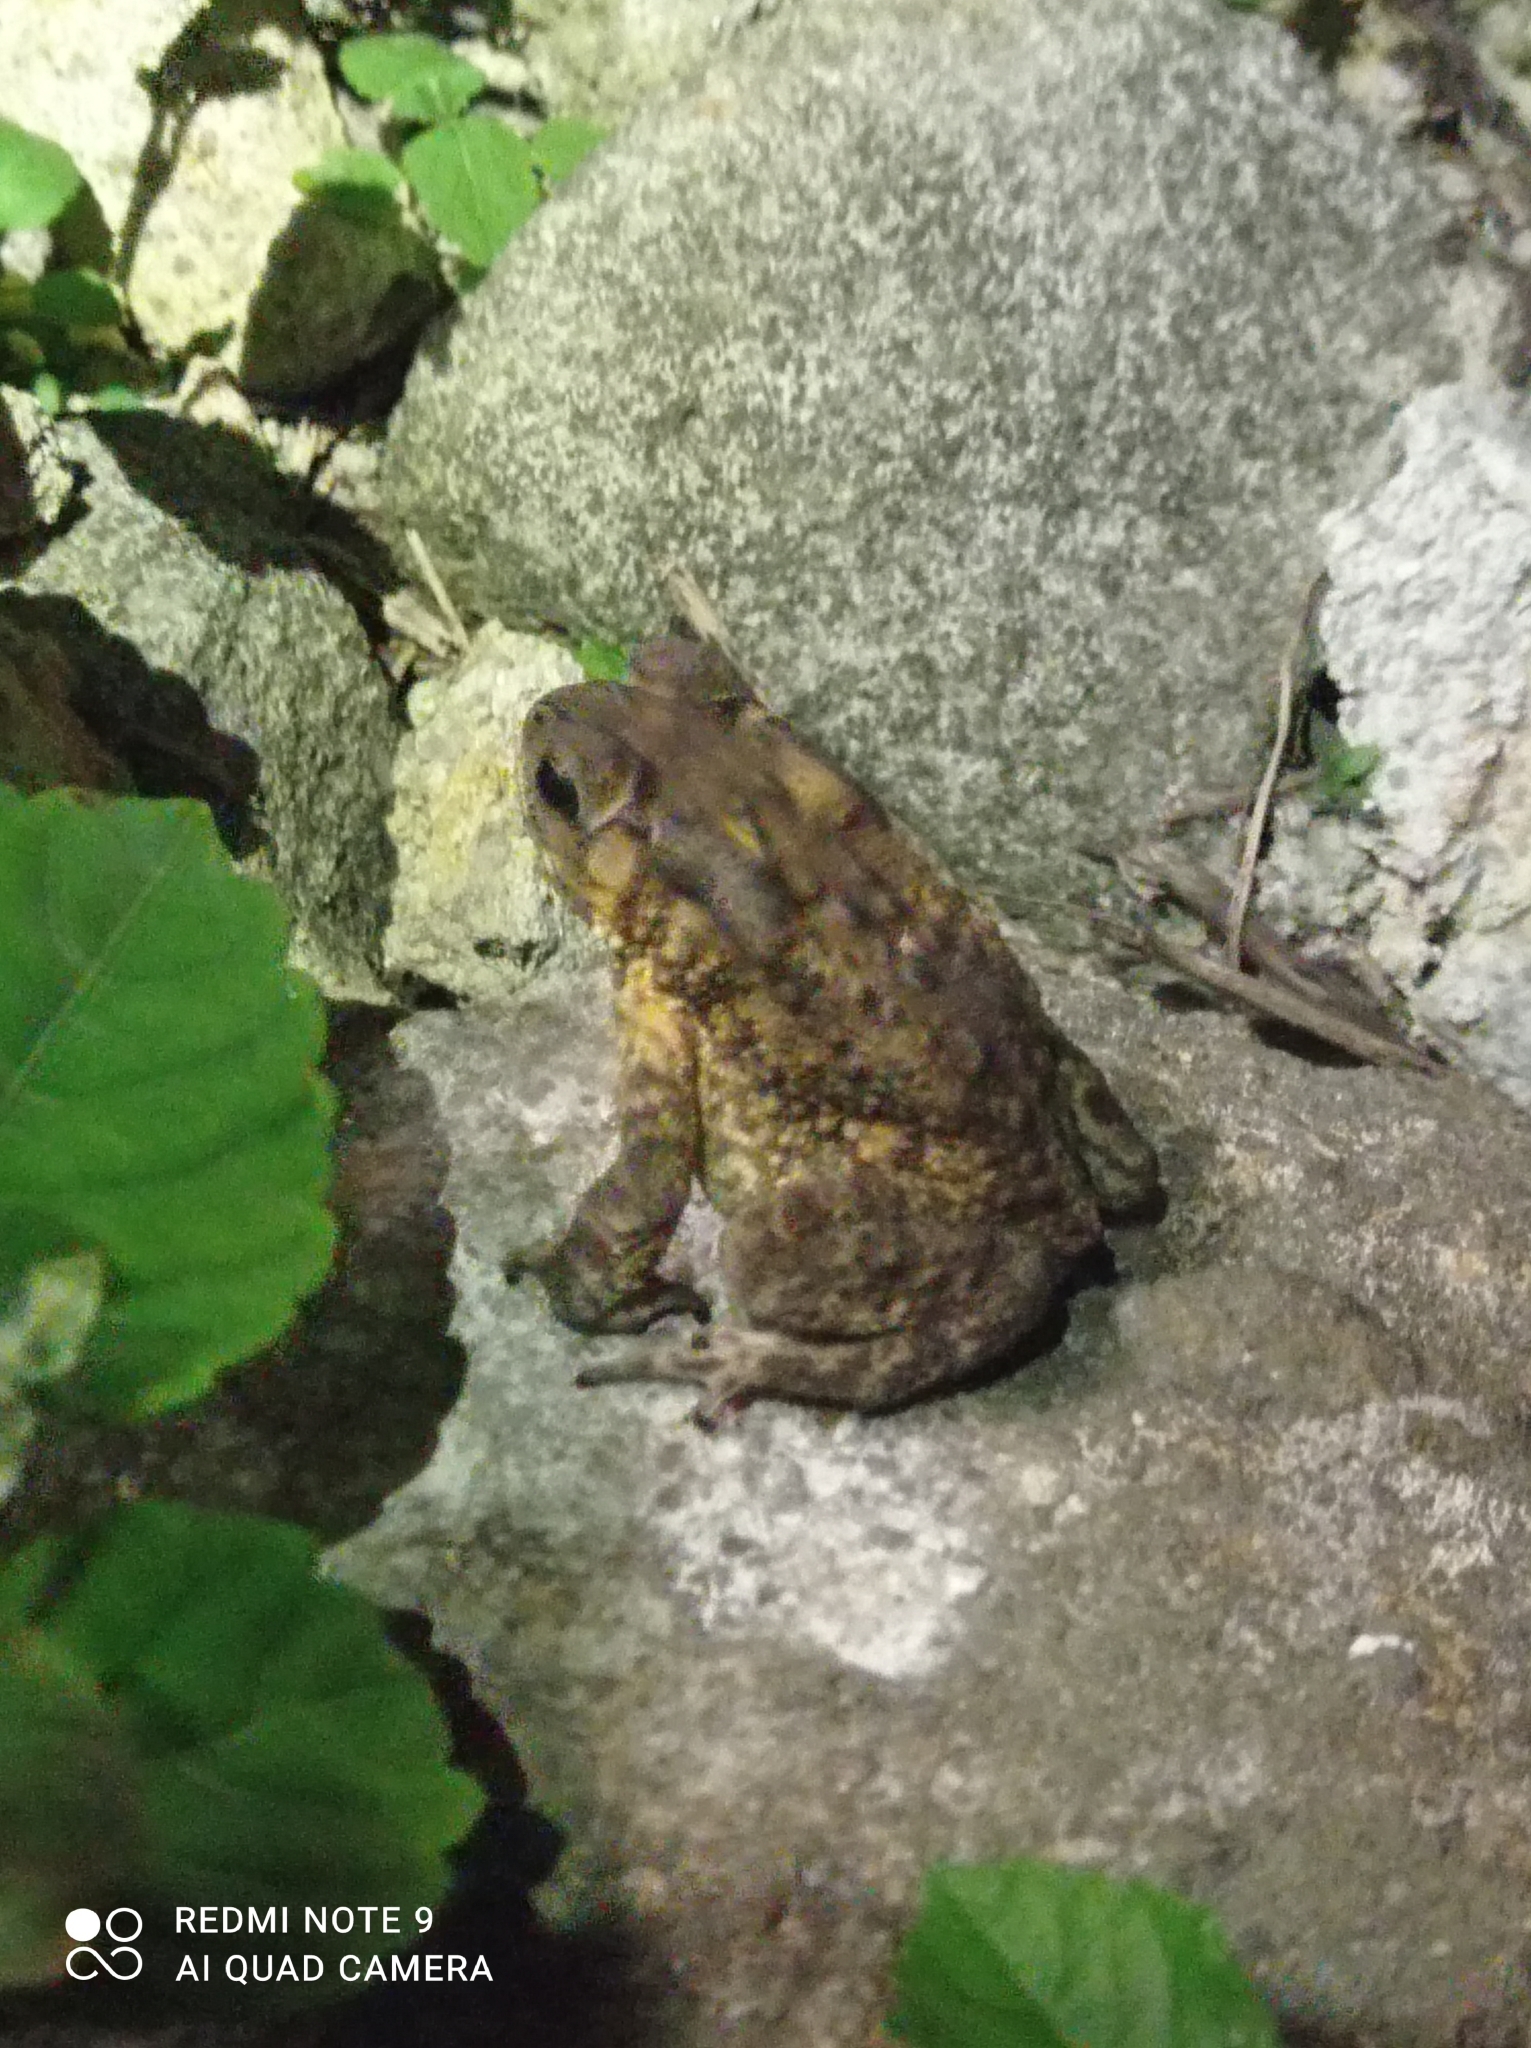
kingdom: Animalia
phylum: Chordata
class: Amphibia
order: Anura
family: Bufonidae
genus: Duttaphrynus
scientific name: Duttaphrynus melanostictus
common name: Common sunda toad
